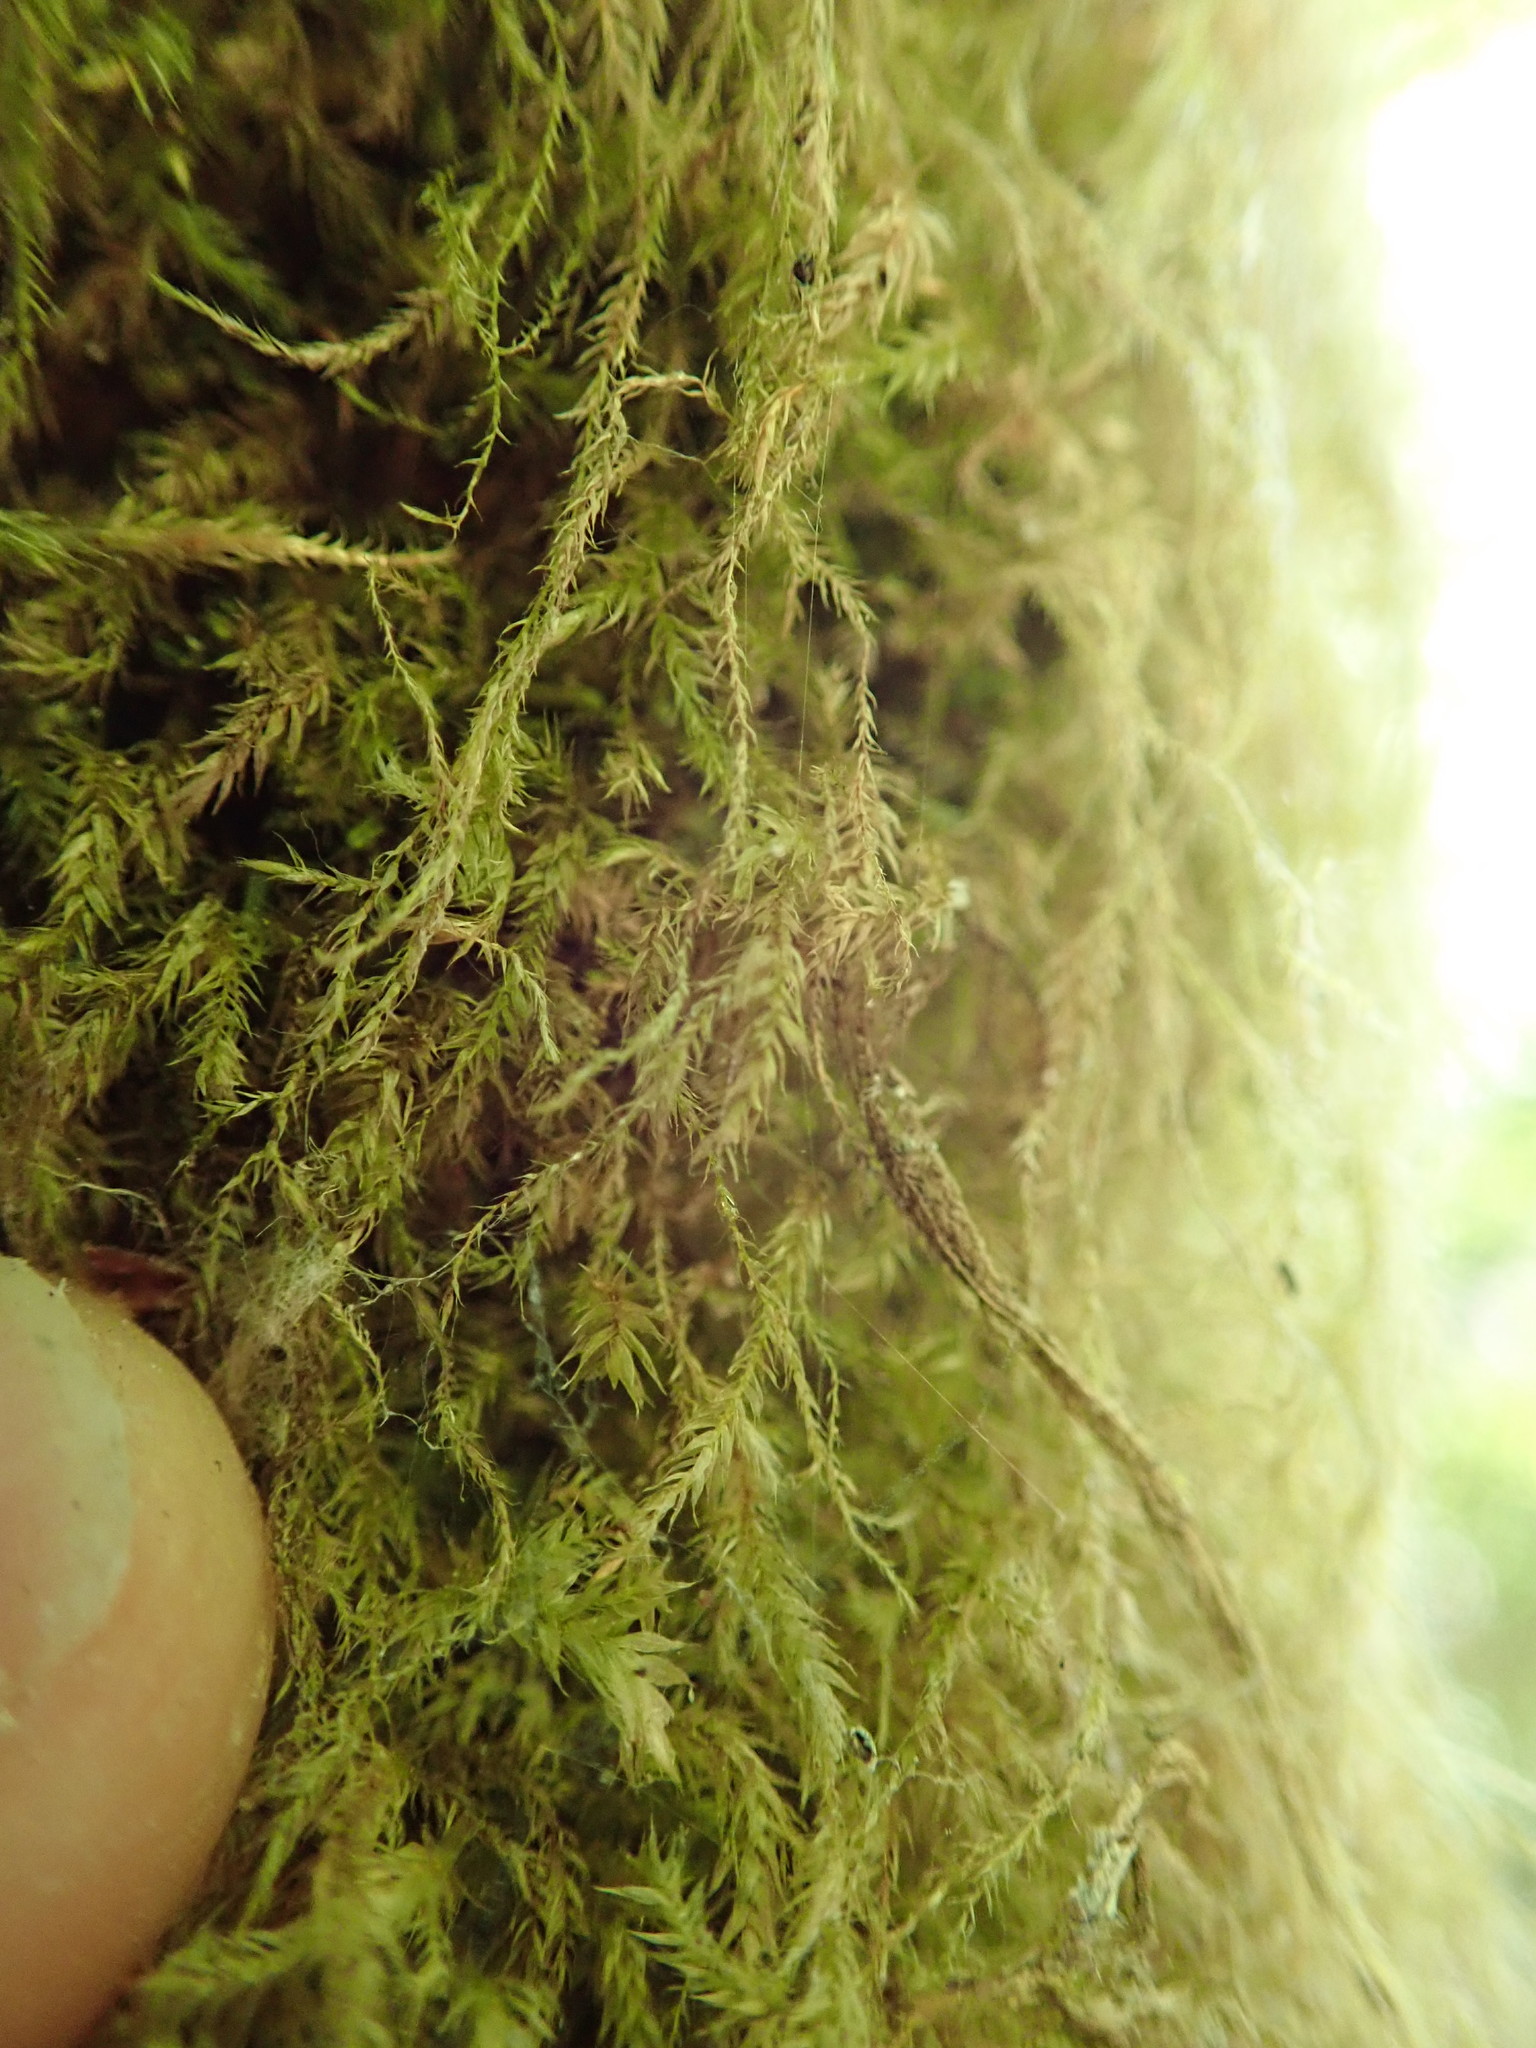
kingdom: Plantae
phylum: Bryophyta
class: Bryopsida
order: Hypnales
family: Lembophyllaceae
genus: Pseudisothecium
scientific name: Pseudisothecium stoloniferum
